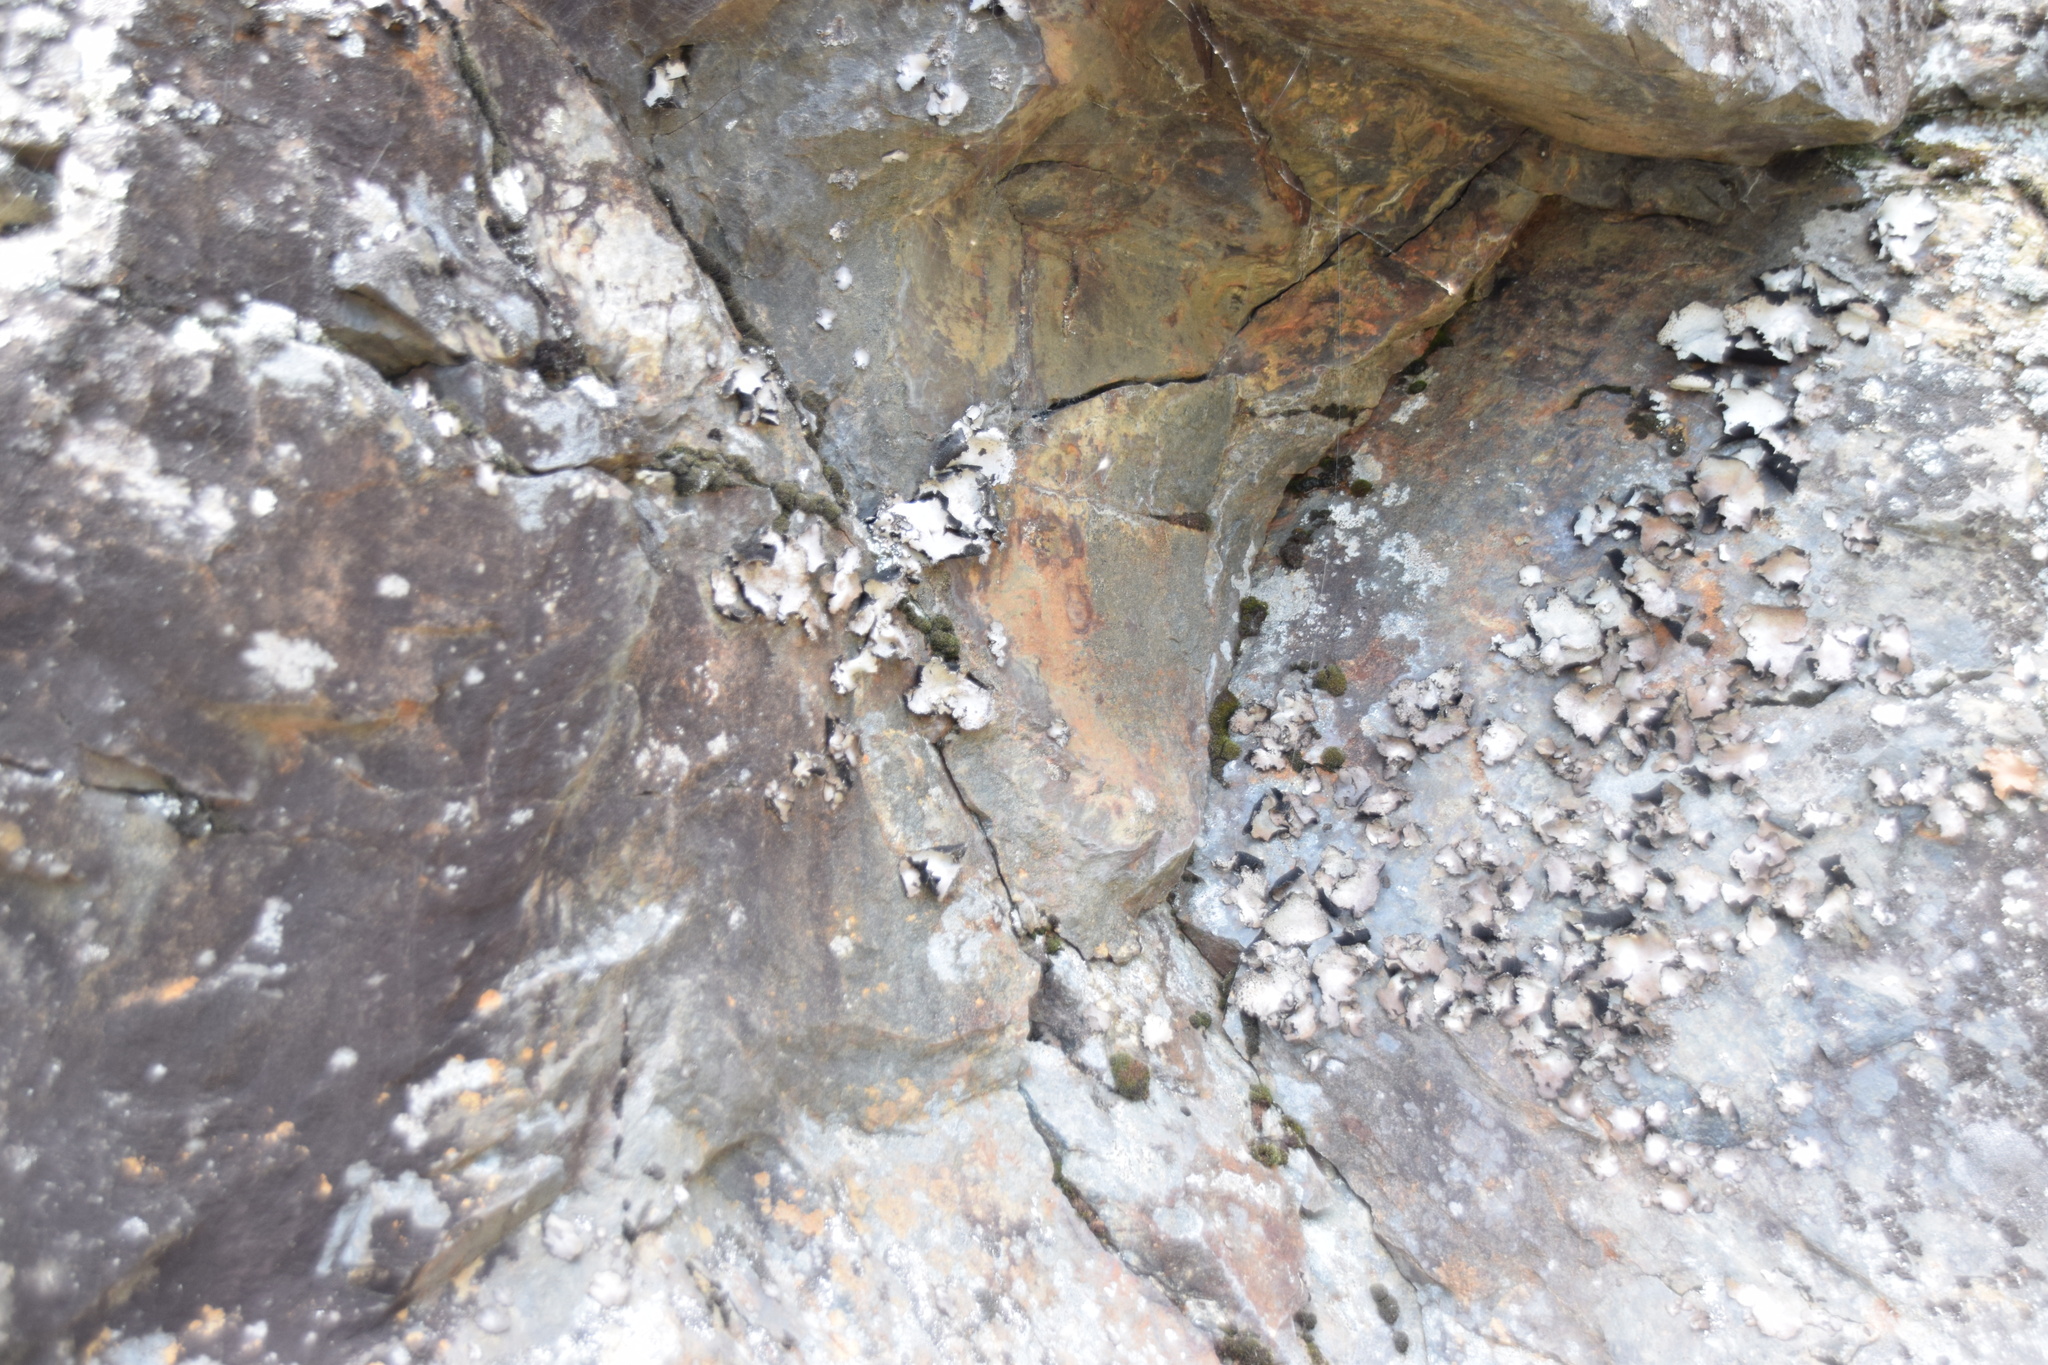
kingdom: Fungi
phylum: Ascomycota
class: Lecanoromycetes
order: Umbilicariales
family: Umbilicariaceae
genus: Umbilicaria
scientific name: Umbilicaria mammulata
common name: Smooth rock tripe
